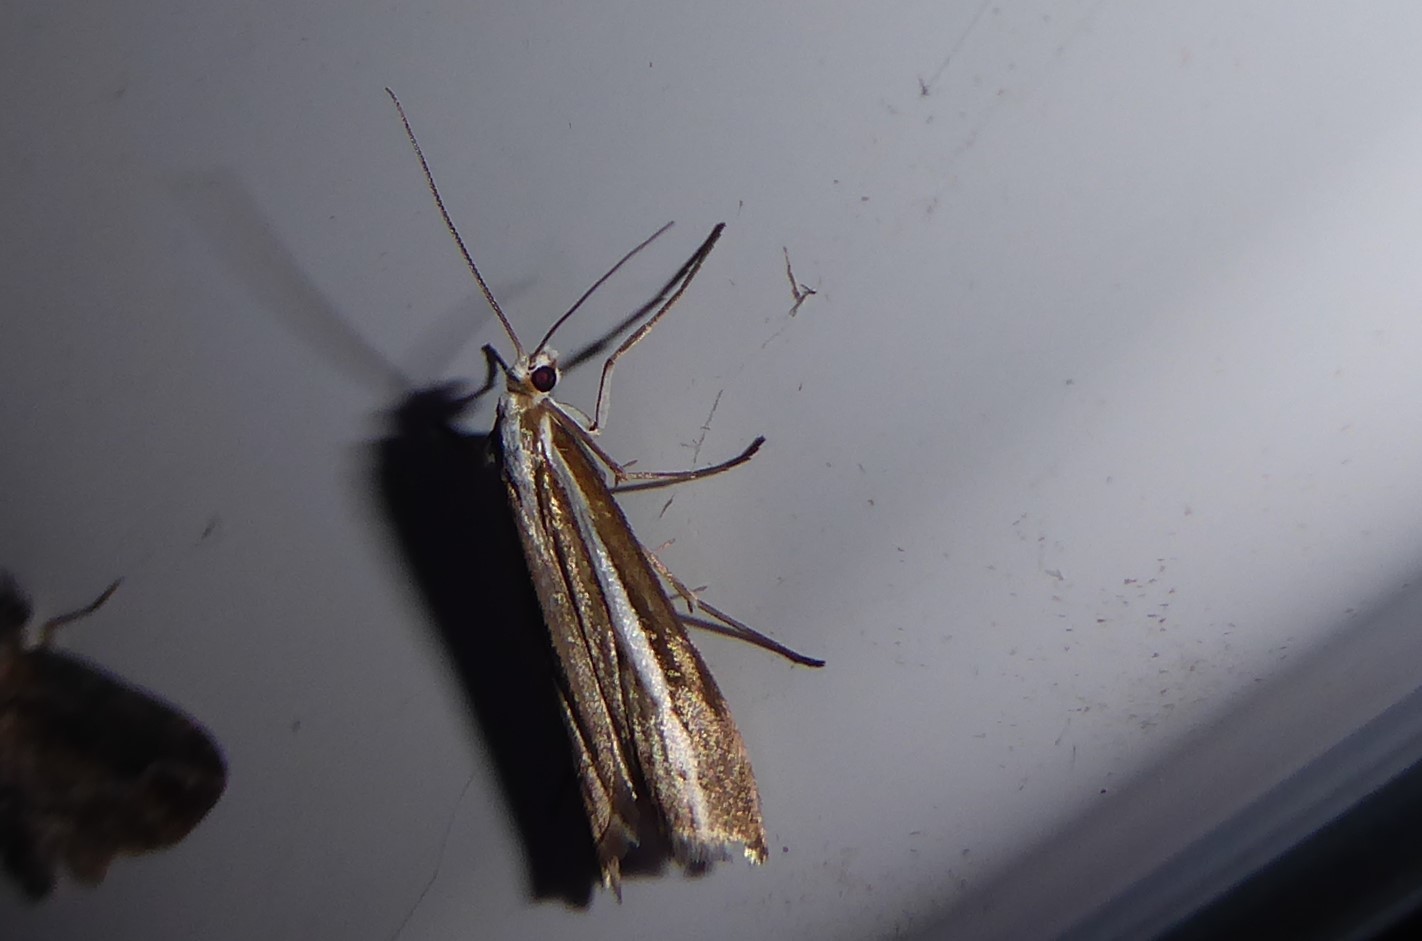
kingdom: Animalia
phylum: Arthropoda
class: Insecta
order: Lepidoptera
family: Crambidae
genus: Orocrambus
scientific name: Orocrambus vittellus
